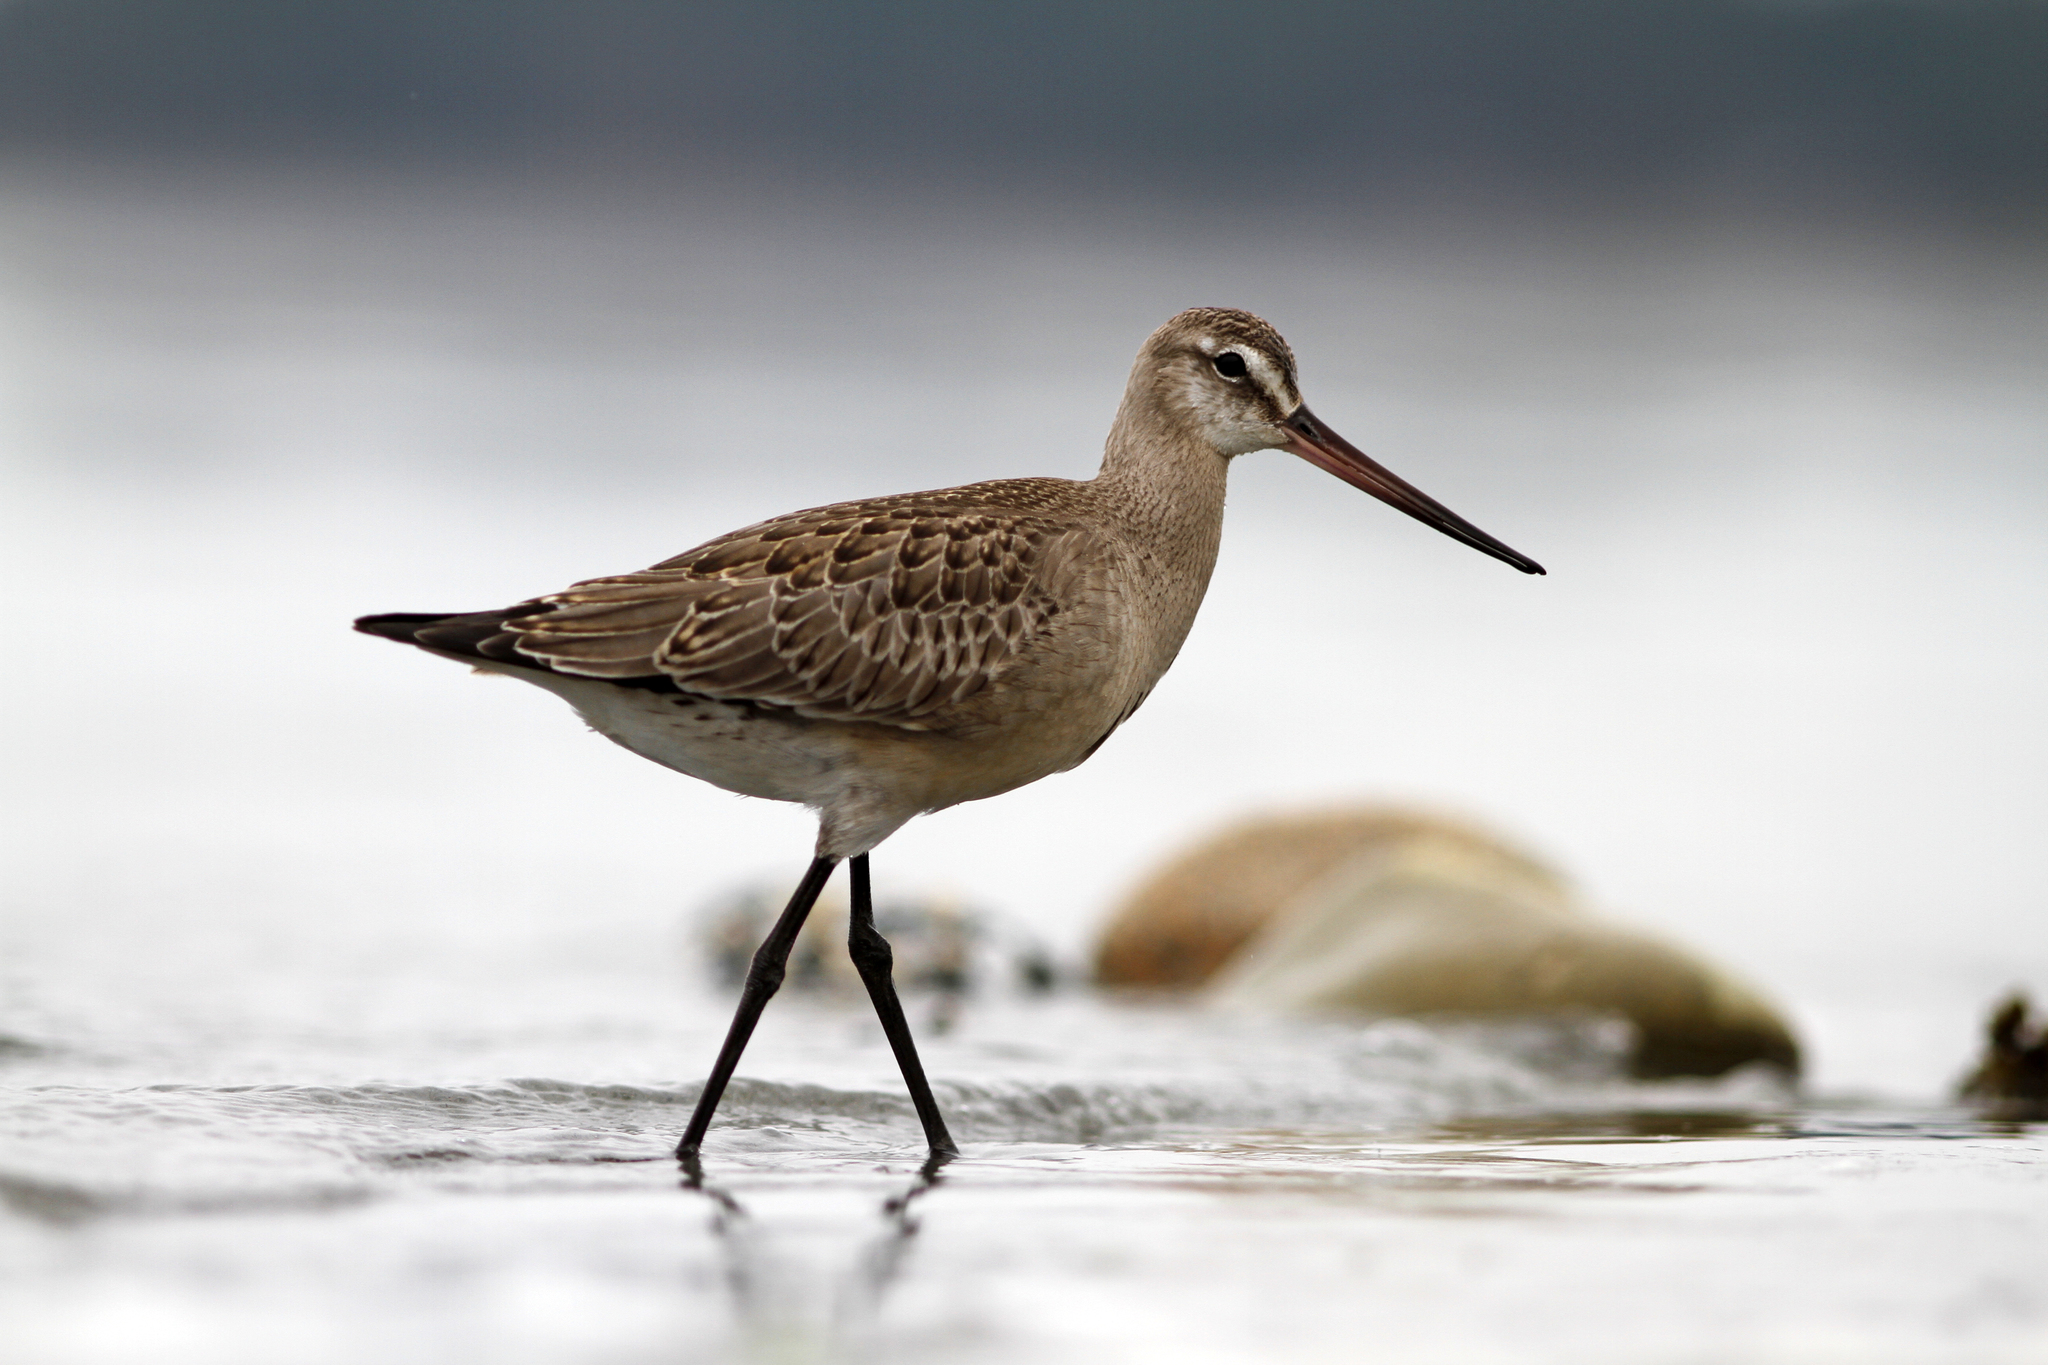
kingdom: Animalia
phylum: Chordata
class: Aves
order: Charadriiformes
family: Scolopacidae
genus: Limosa
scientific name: Limosa haemastica
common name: Hudsonian godwit
